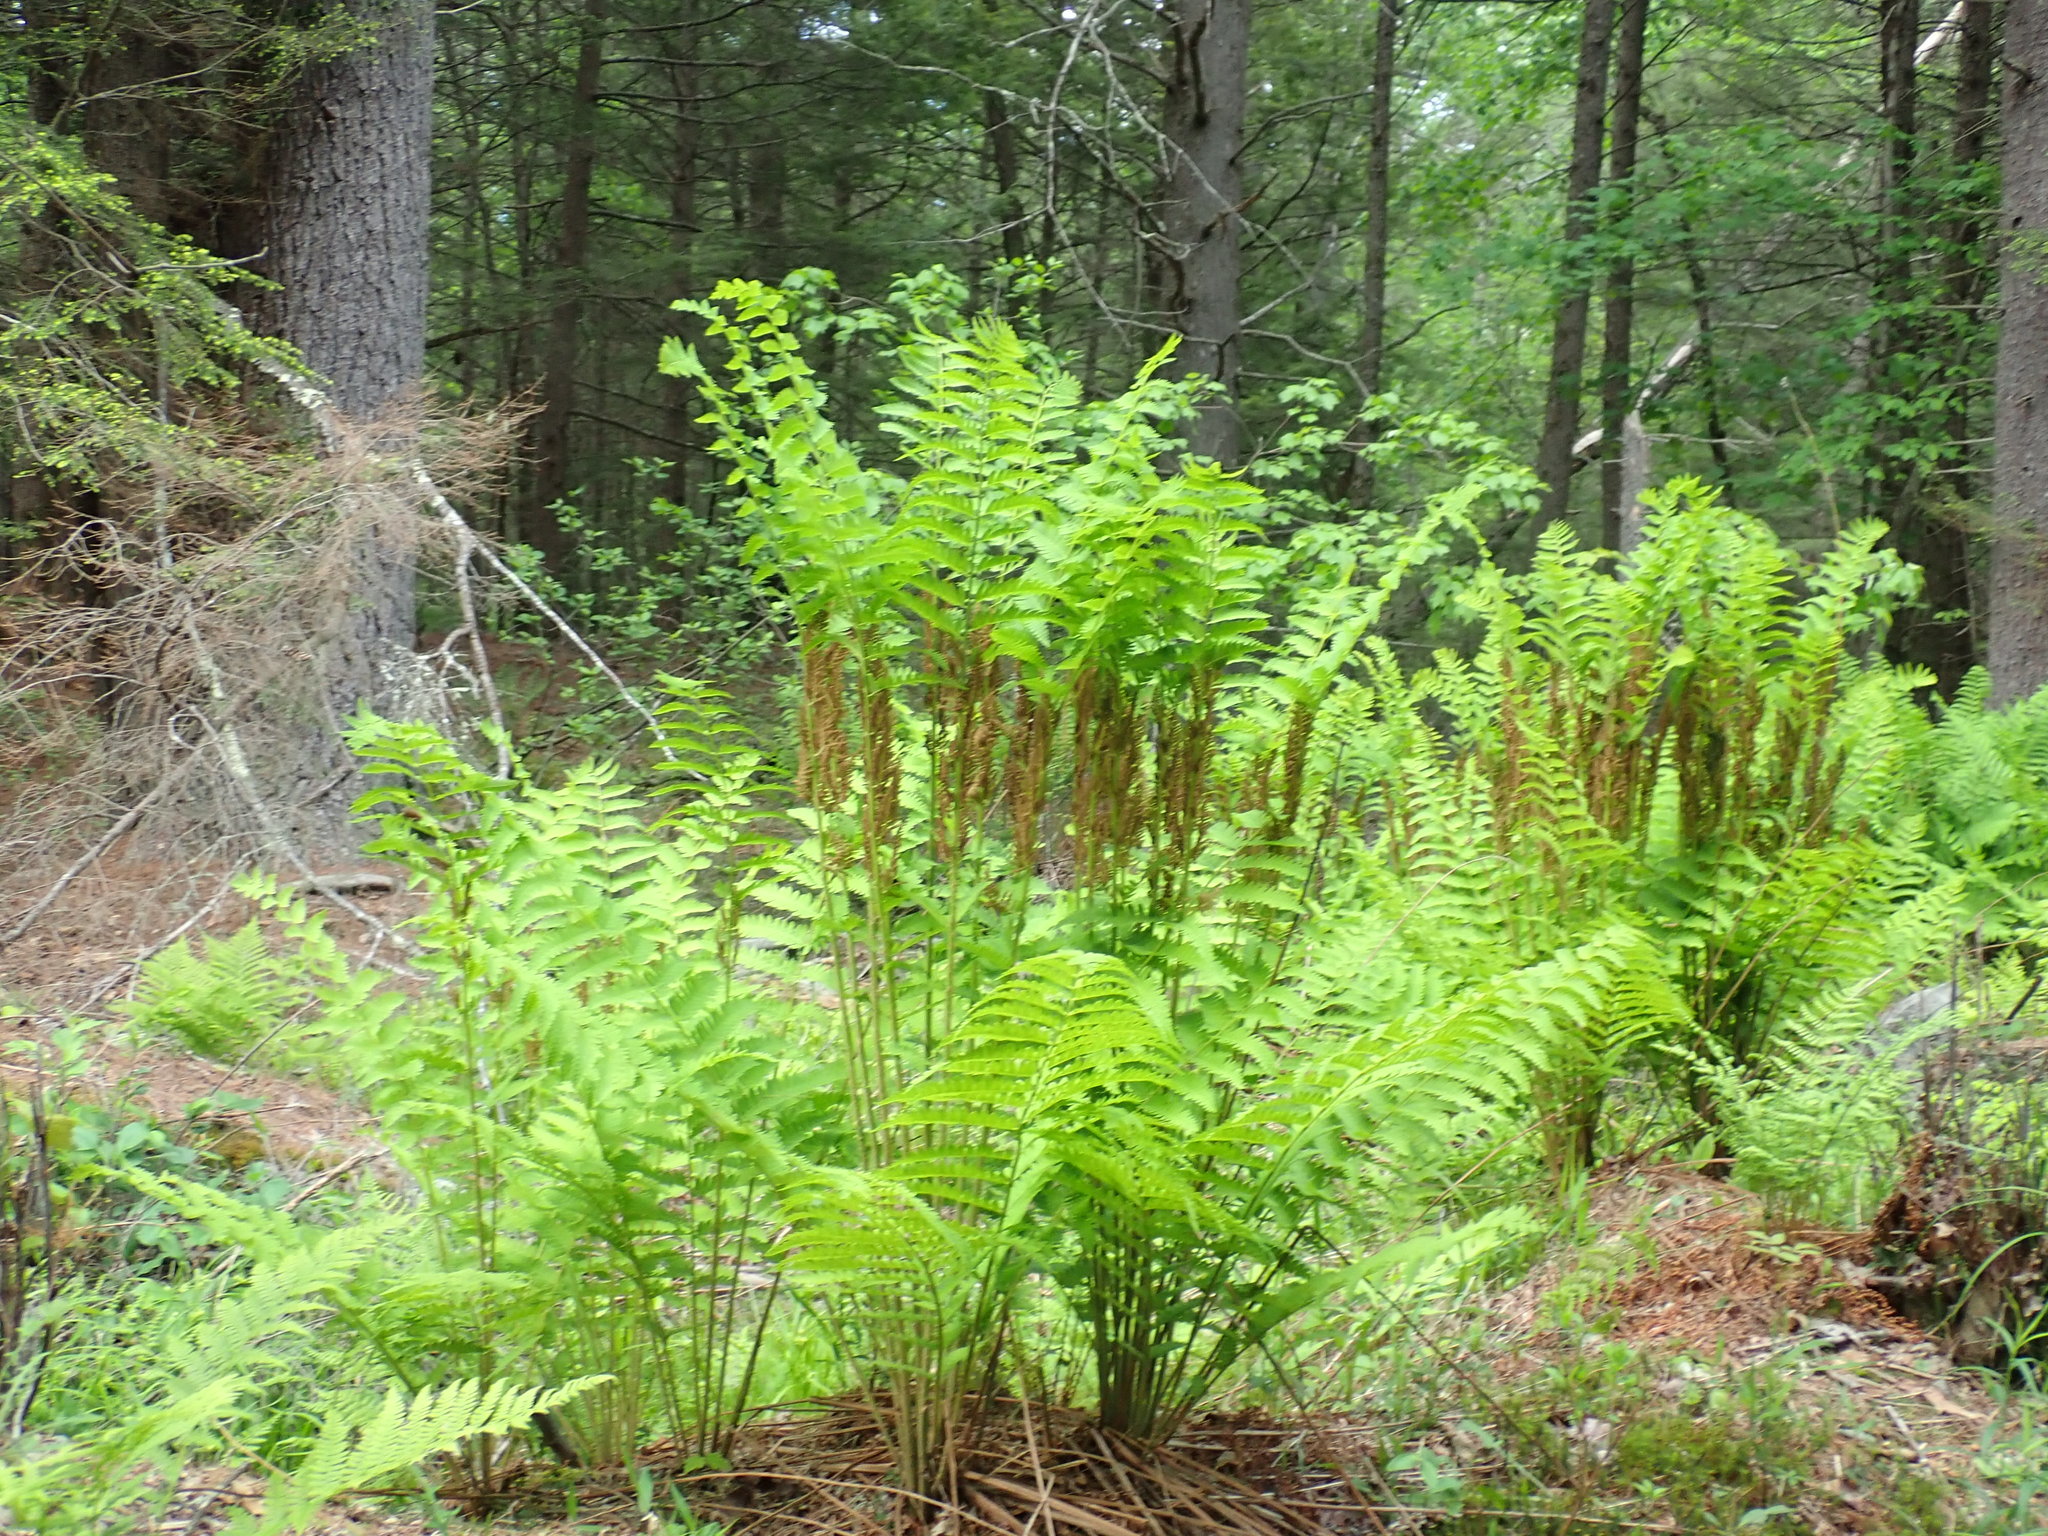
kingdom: Plantae
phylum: Tracheophyta
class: Polypodiopsida
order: Osmundales
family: Osmundaceae
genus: Claytosmunda
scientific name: Claytosmunda claytoniana
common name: Clayton's fern
